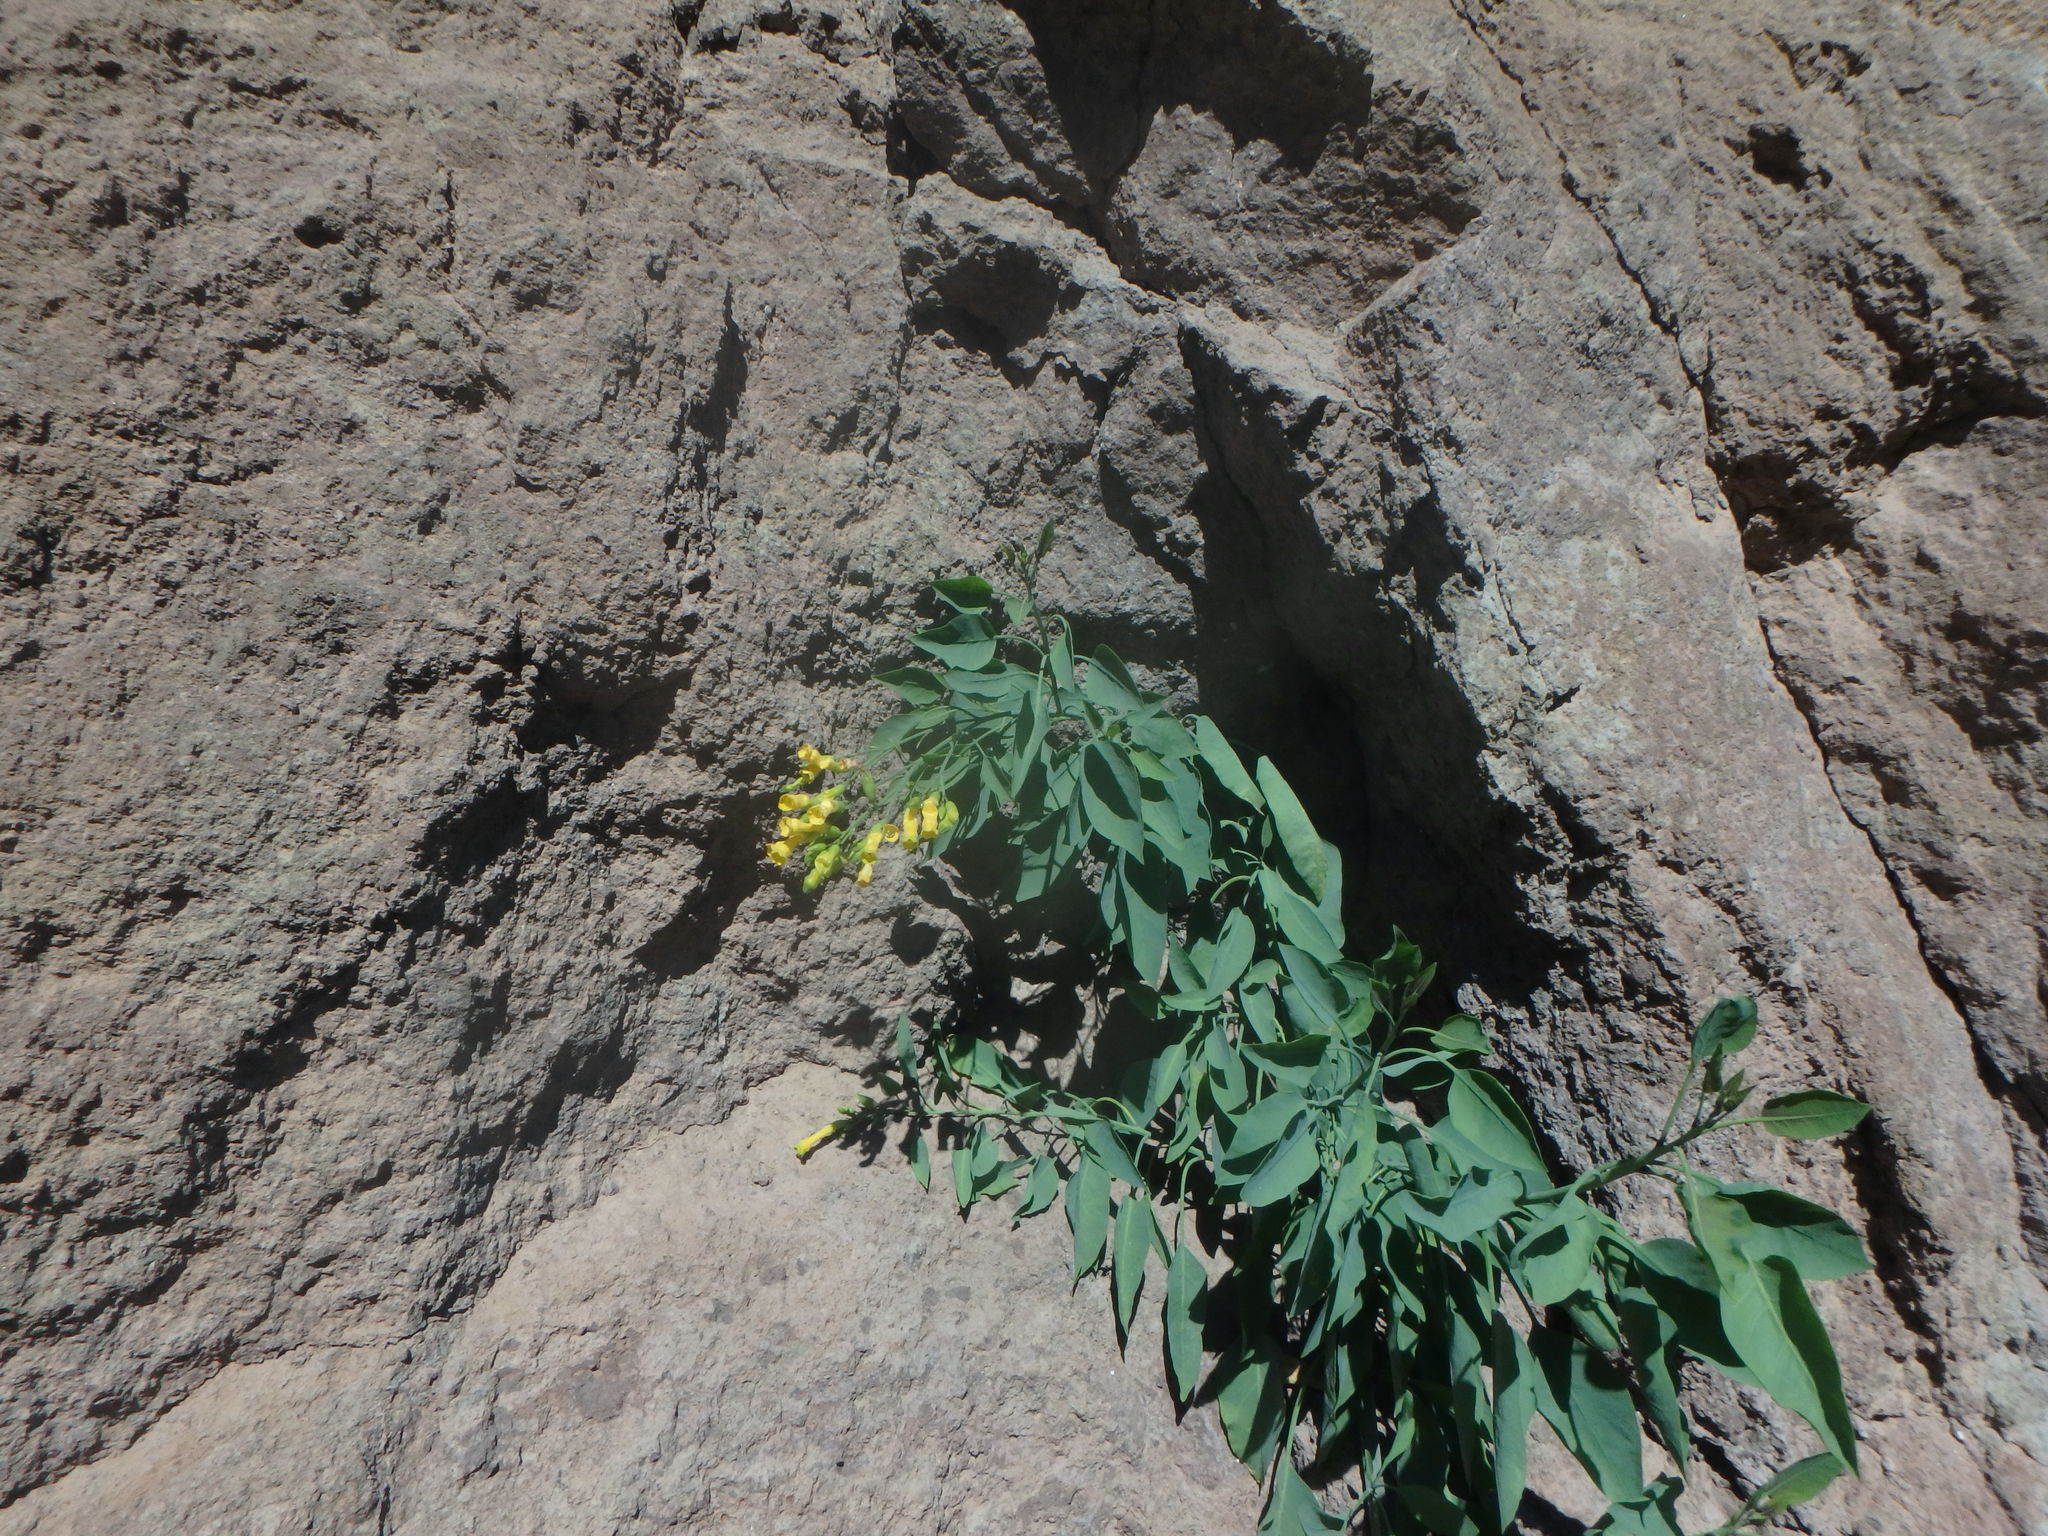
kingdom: Plantae
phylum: Tracheophyta
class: Magnoliopsida
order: Solanales
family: Solanaceae
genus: Nicotiana
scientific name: Nicotiana glauca
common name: Tree tobacco
